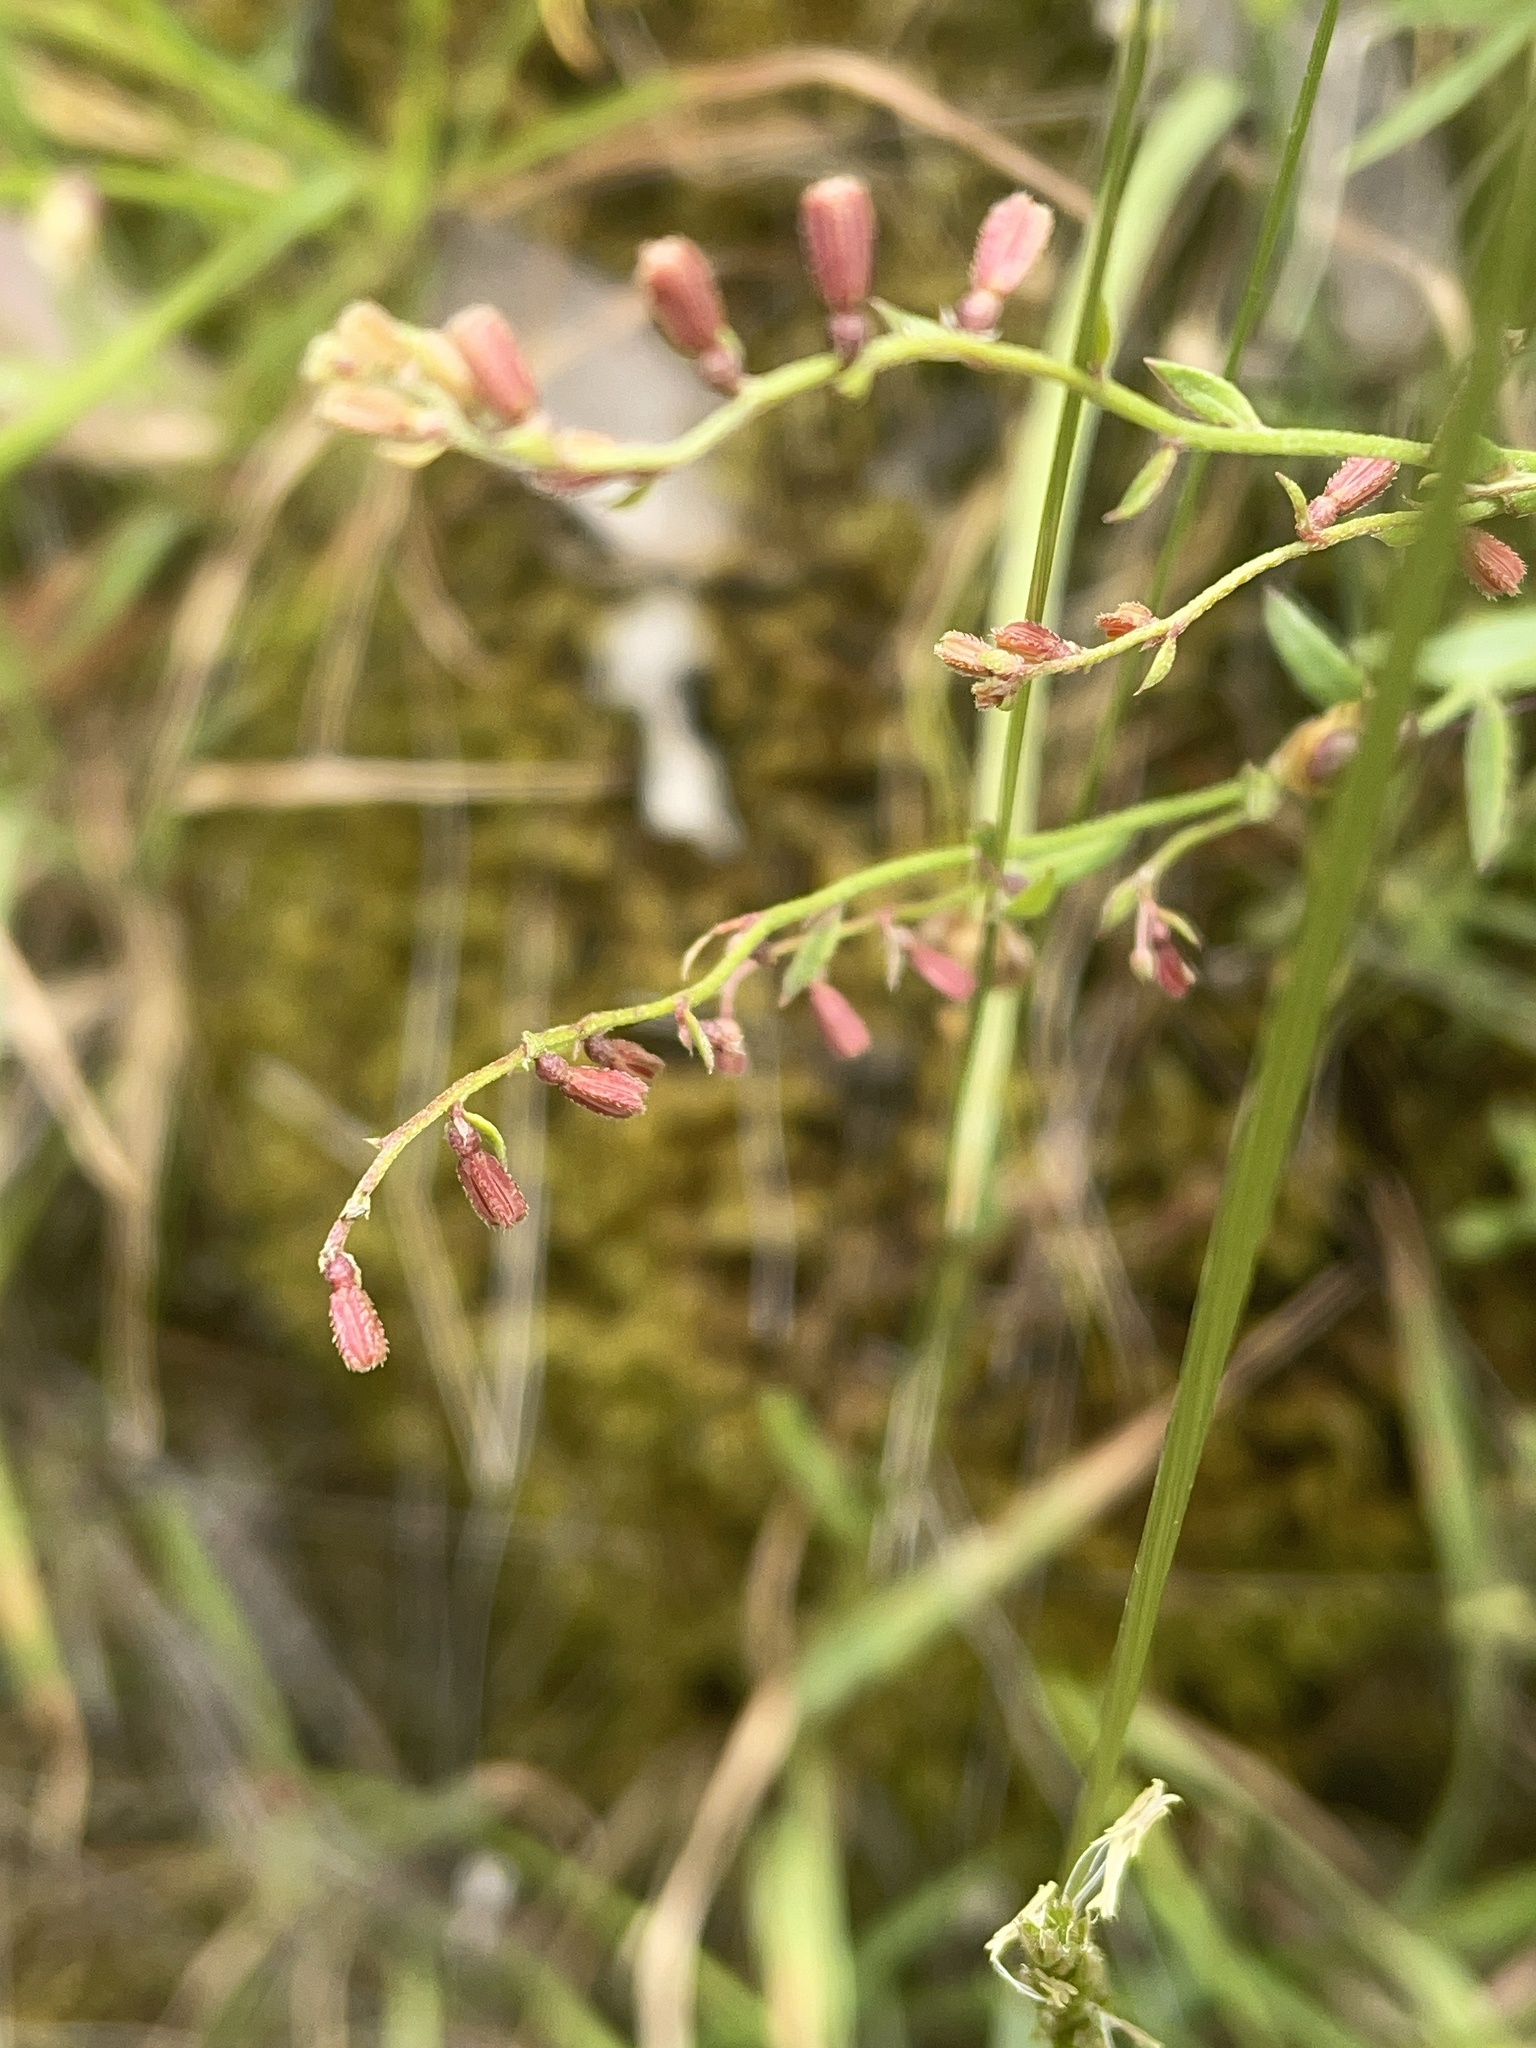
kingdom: Plantae
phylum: Tracheophyta
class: Magnoliopsida
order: Saxifragales
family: Haloragaceae
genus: Gonocarpus
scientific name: Gonocarpus tetragynus
